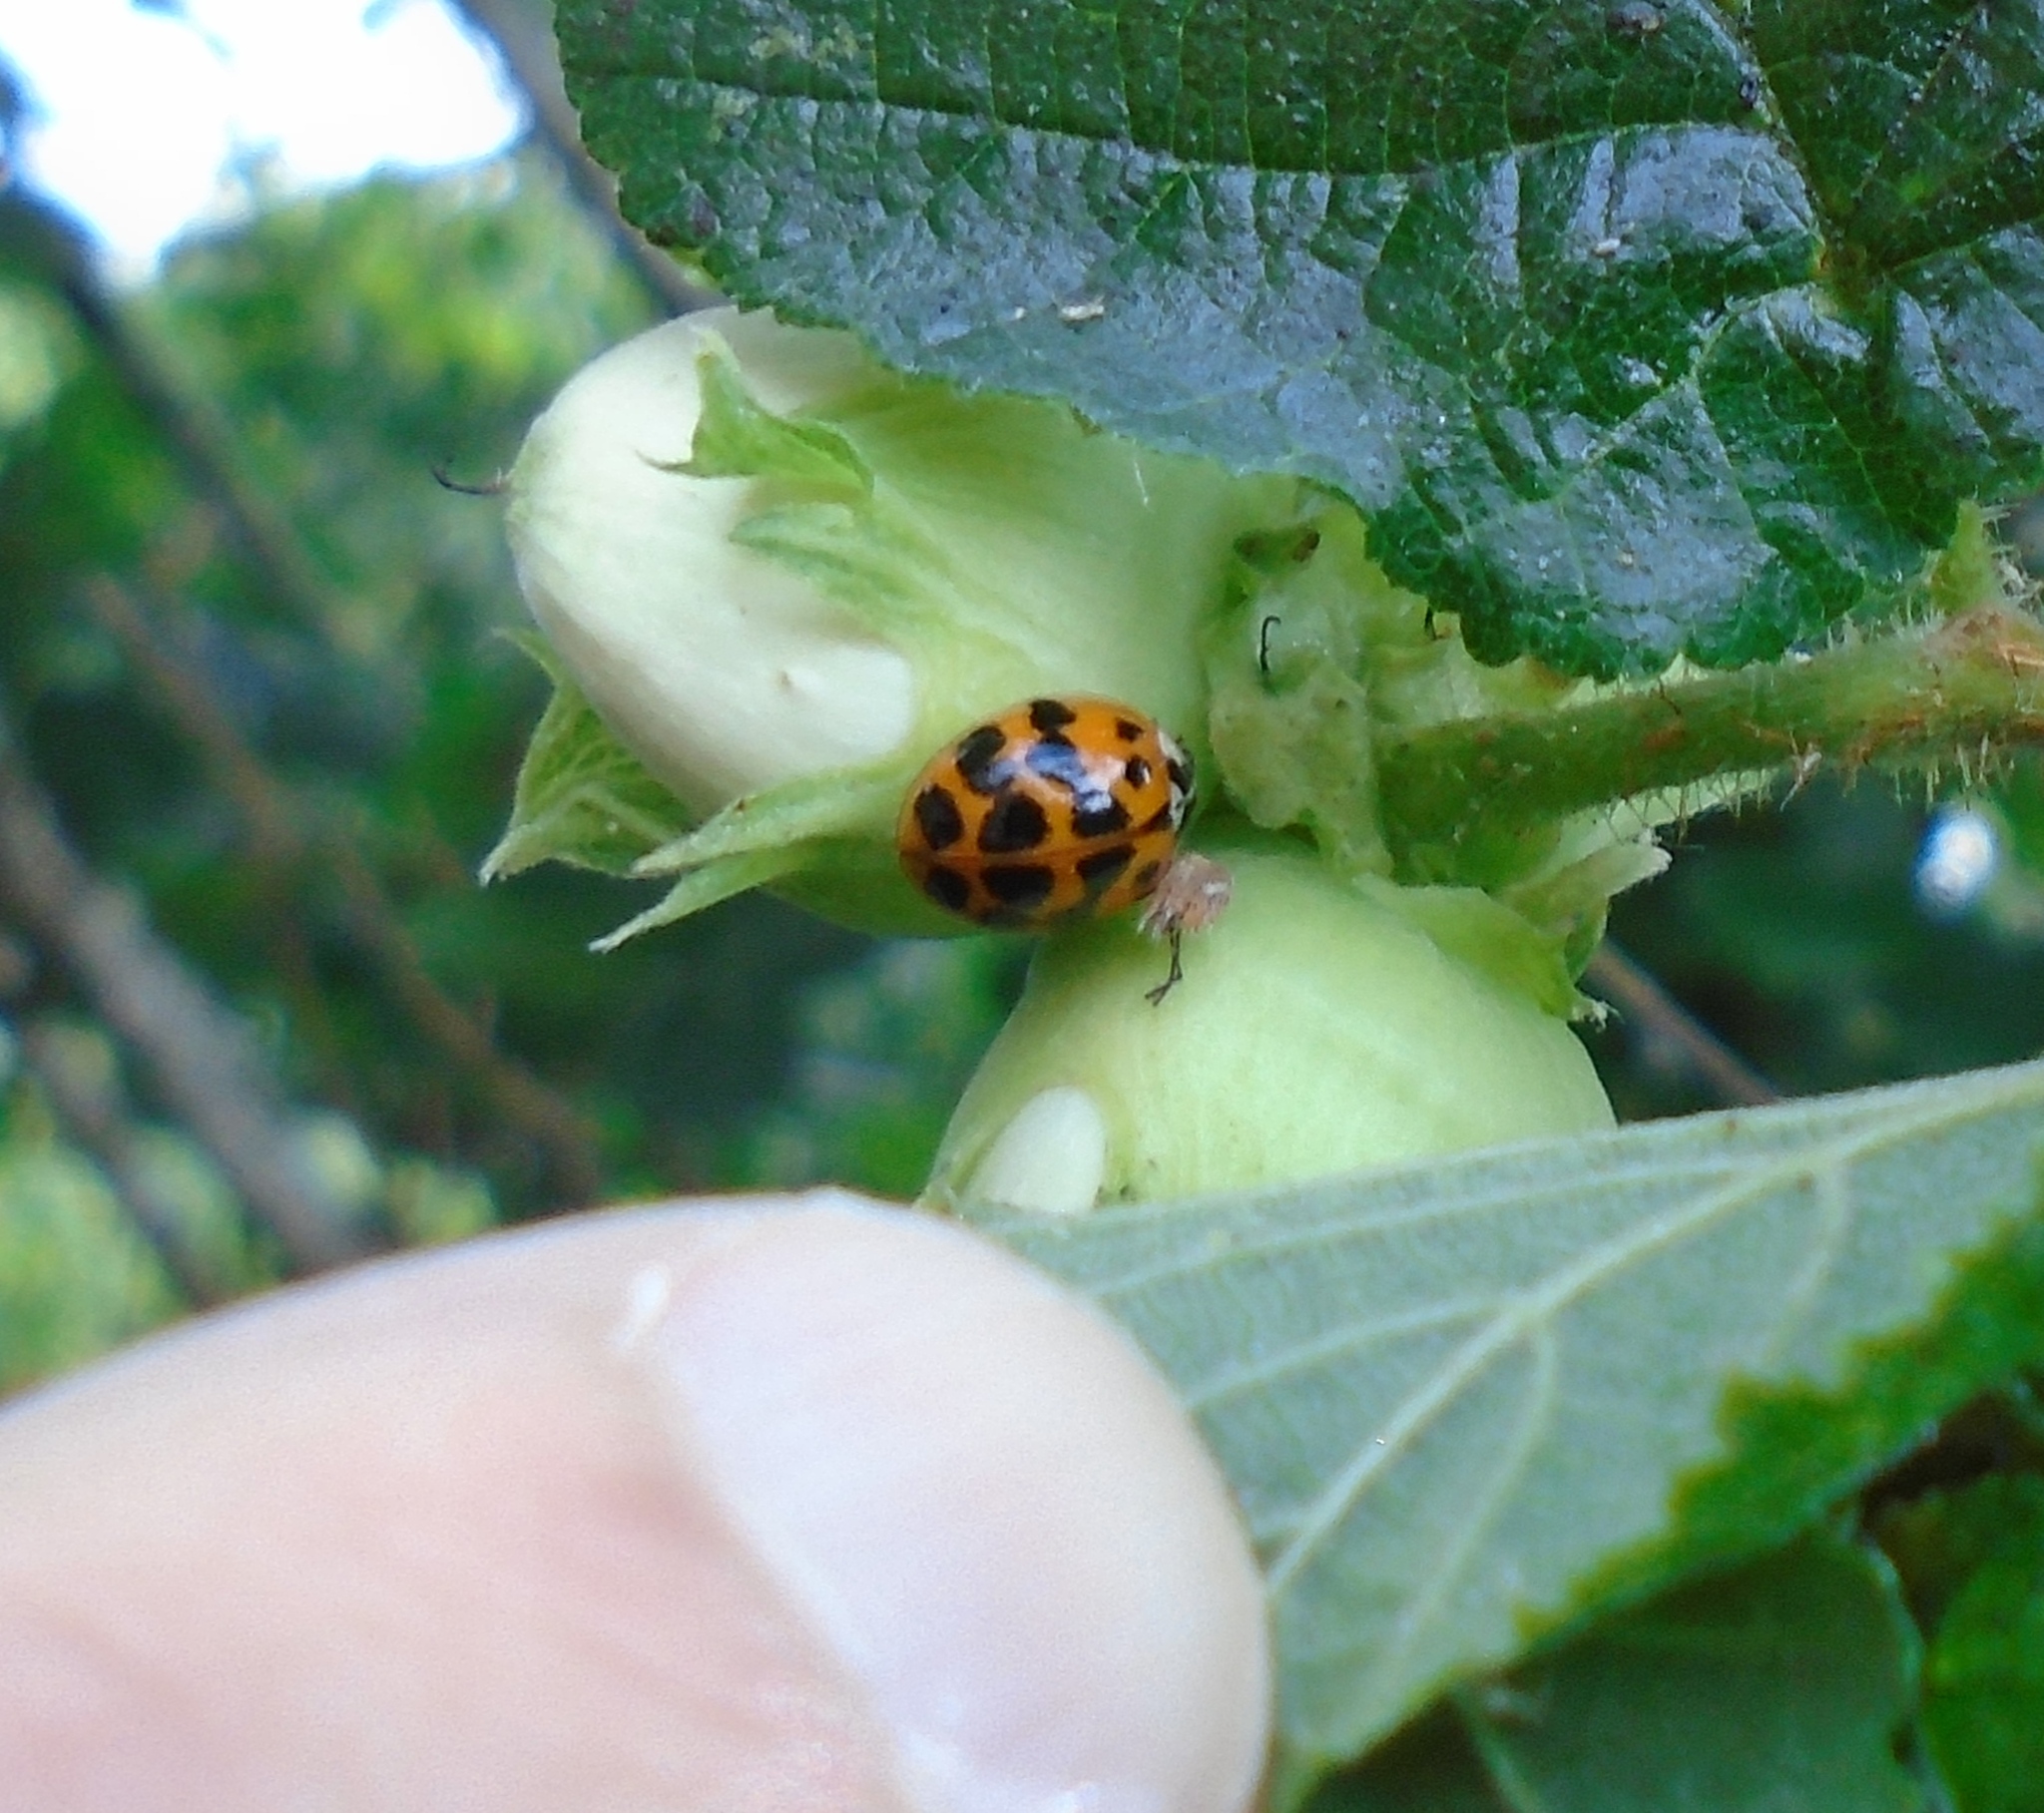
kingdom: Animalia
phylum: Arthropoda
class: Insecta
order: Coleoptera
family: Coccinellidae
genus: Harmonia
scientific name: Harmonia axyridis
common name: Harlequin ladybird
